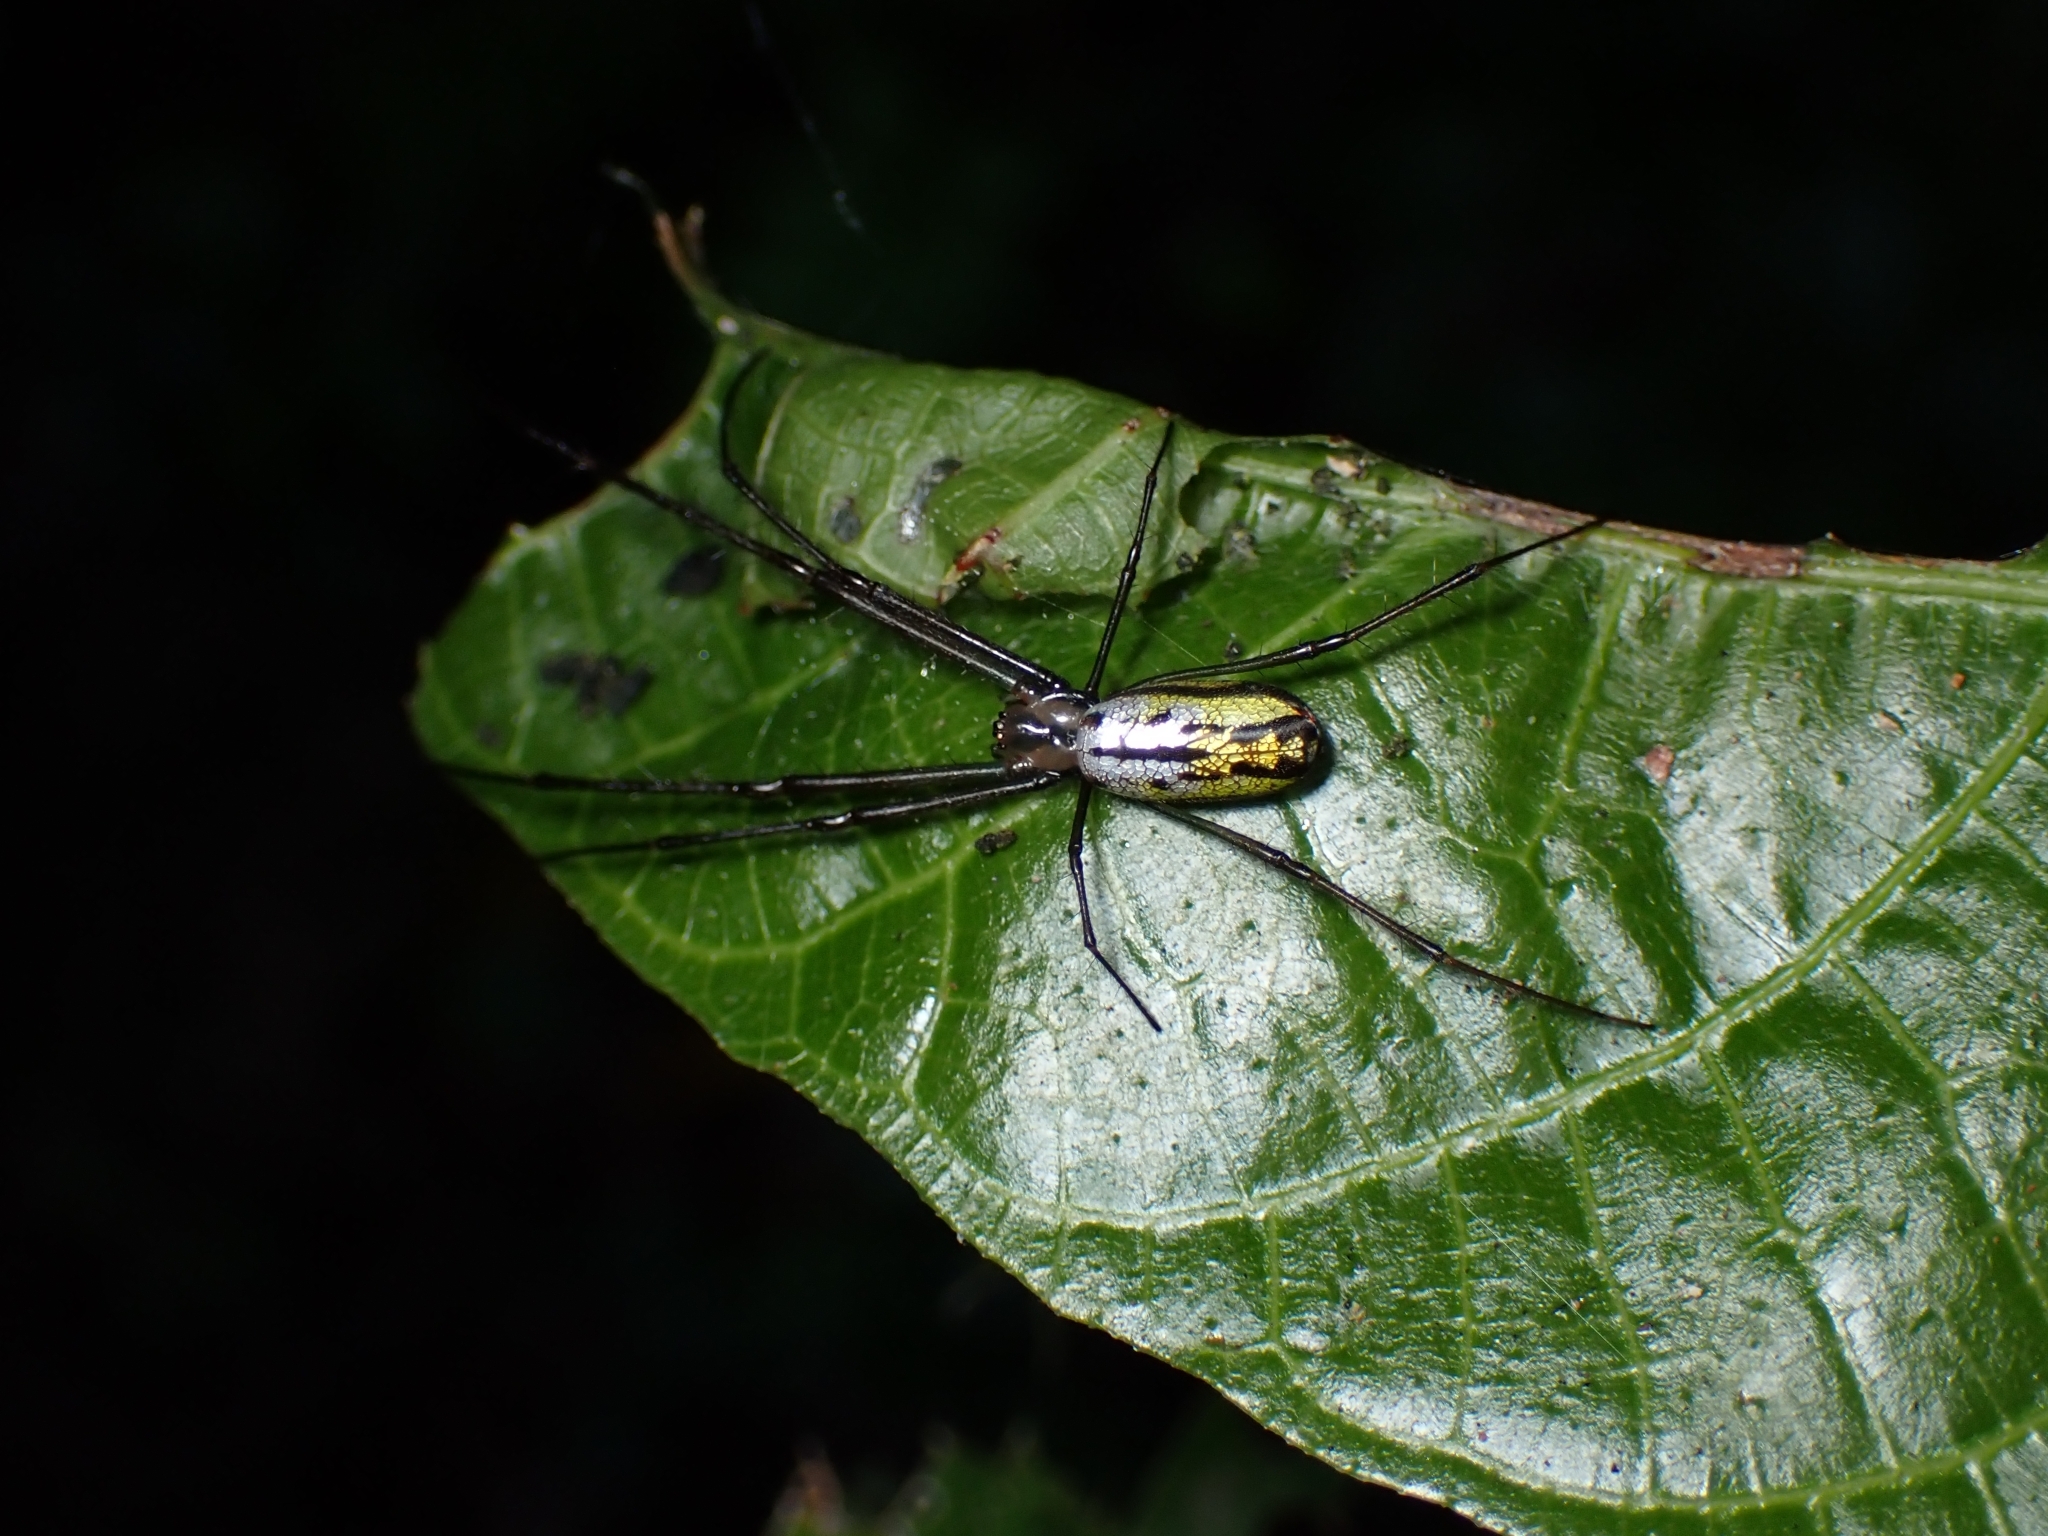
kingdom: Animalia
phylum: Arthropoda
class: Arachnida
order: Araneae
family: Tetragnathidae
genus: Leucauge
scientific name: Leucauge hebridisiana
